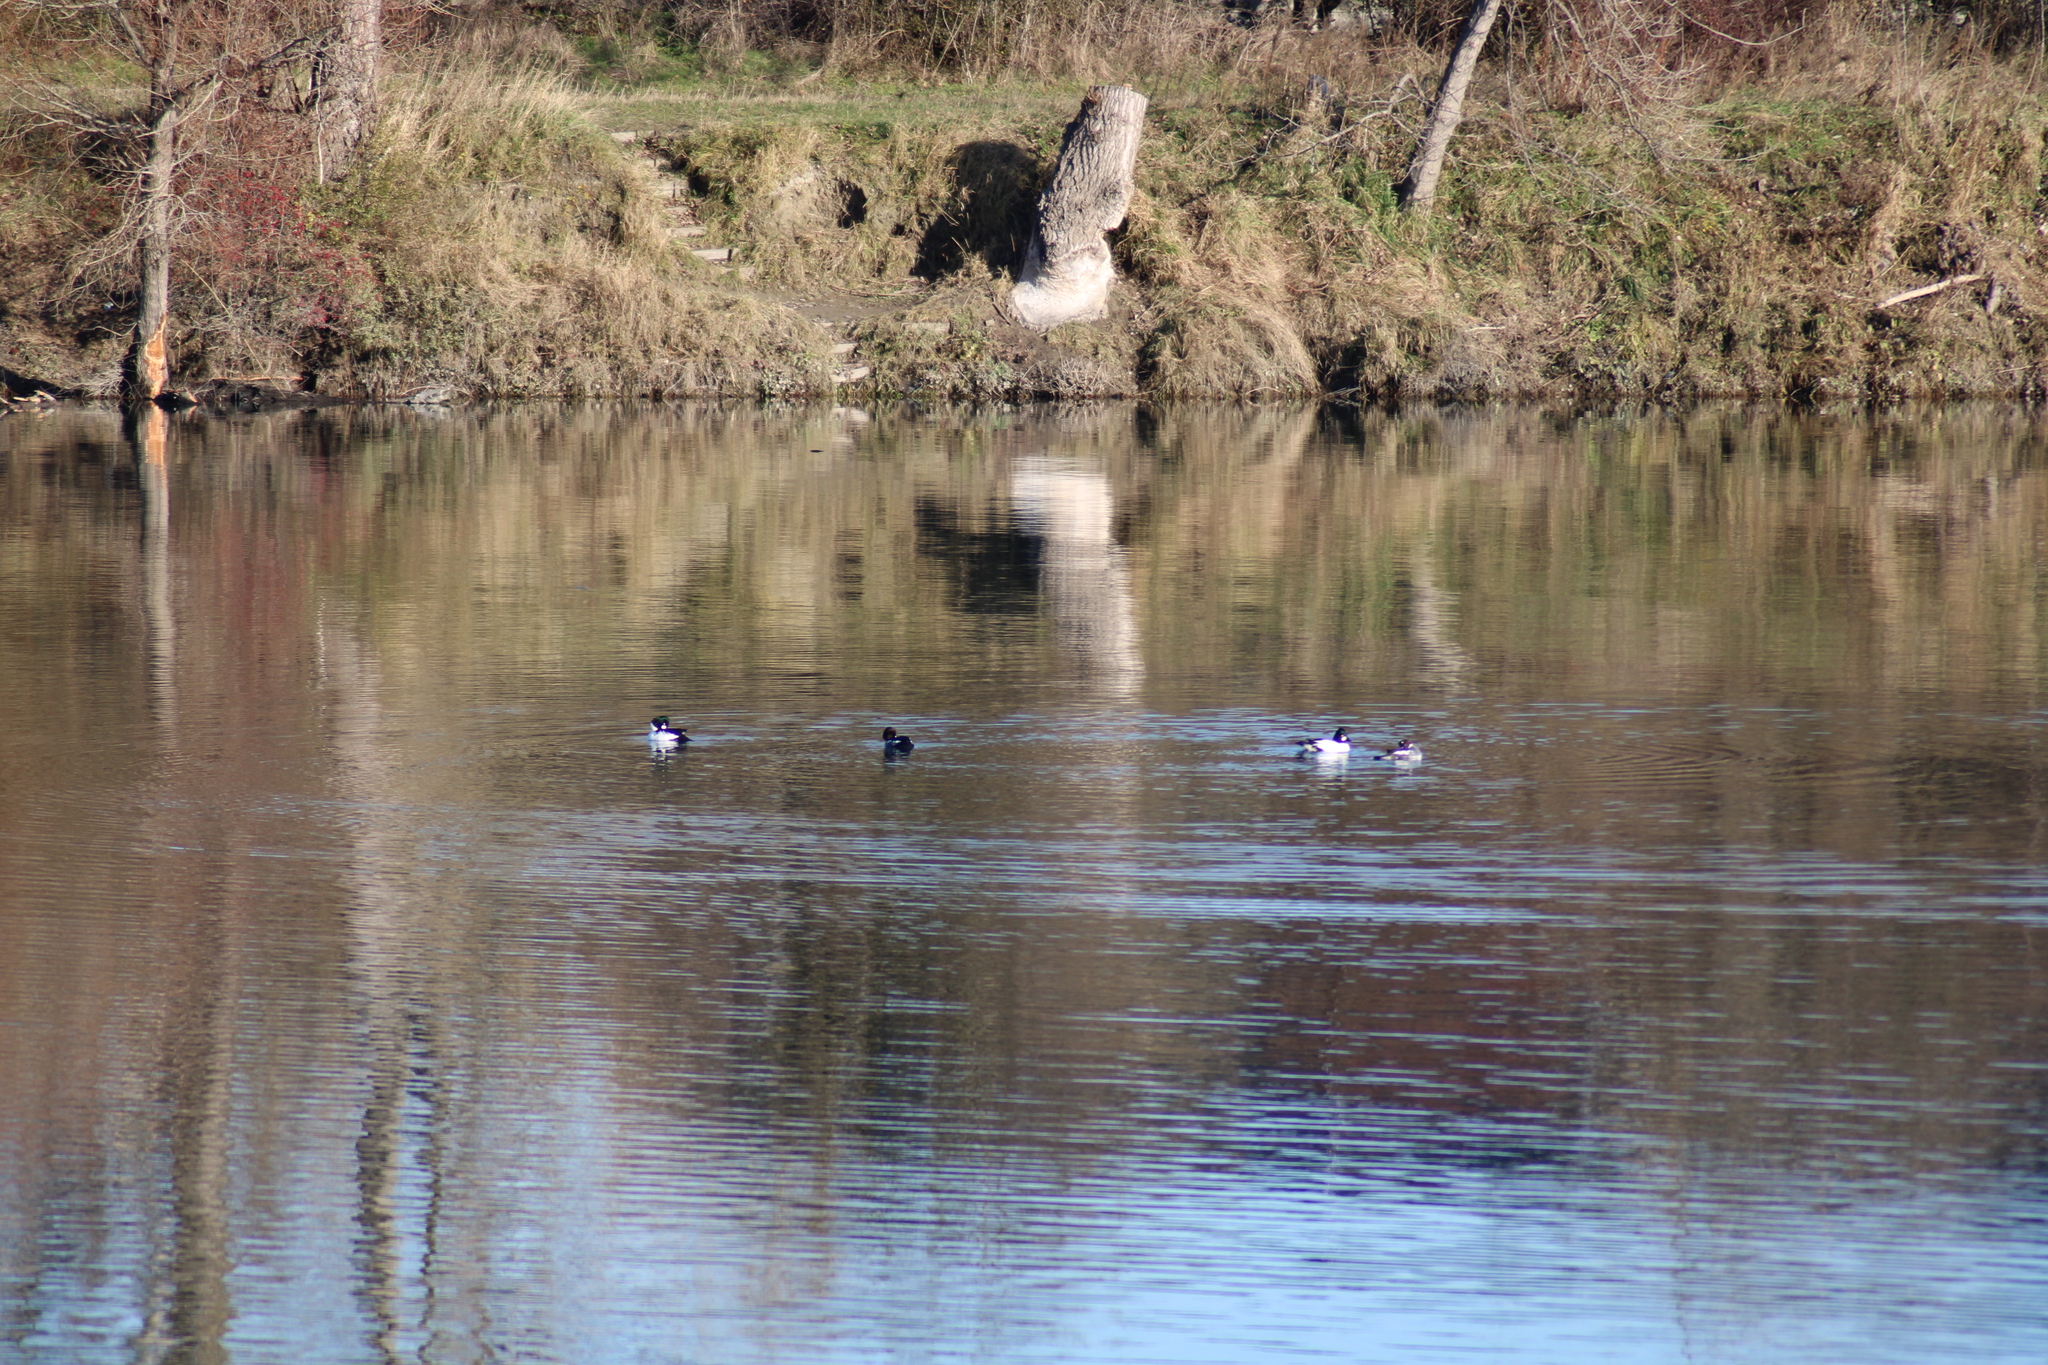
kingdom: Animalia
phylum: Chordata
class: Aves
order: Anseriformes
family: Anatidae
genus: Bucephala
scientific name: Bucephala clangula
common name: Common goldeneye
